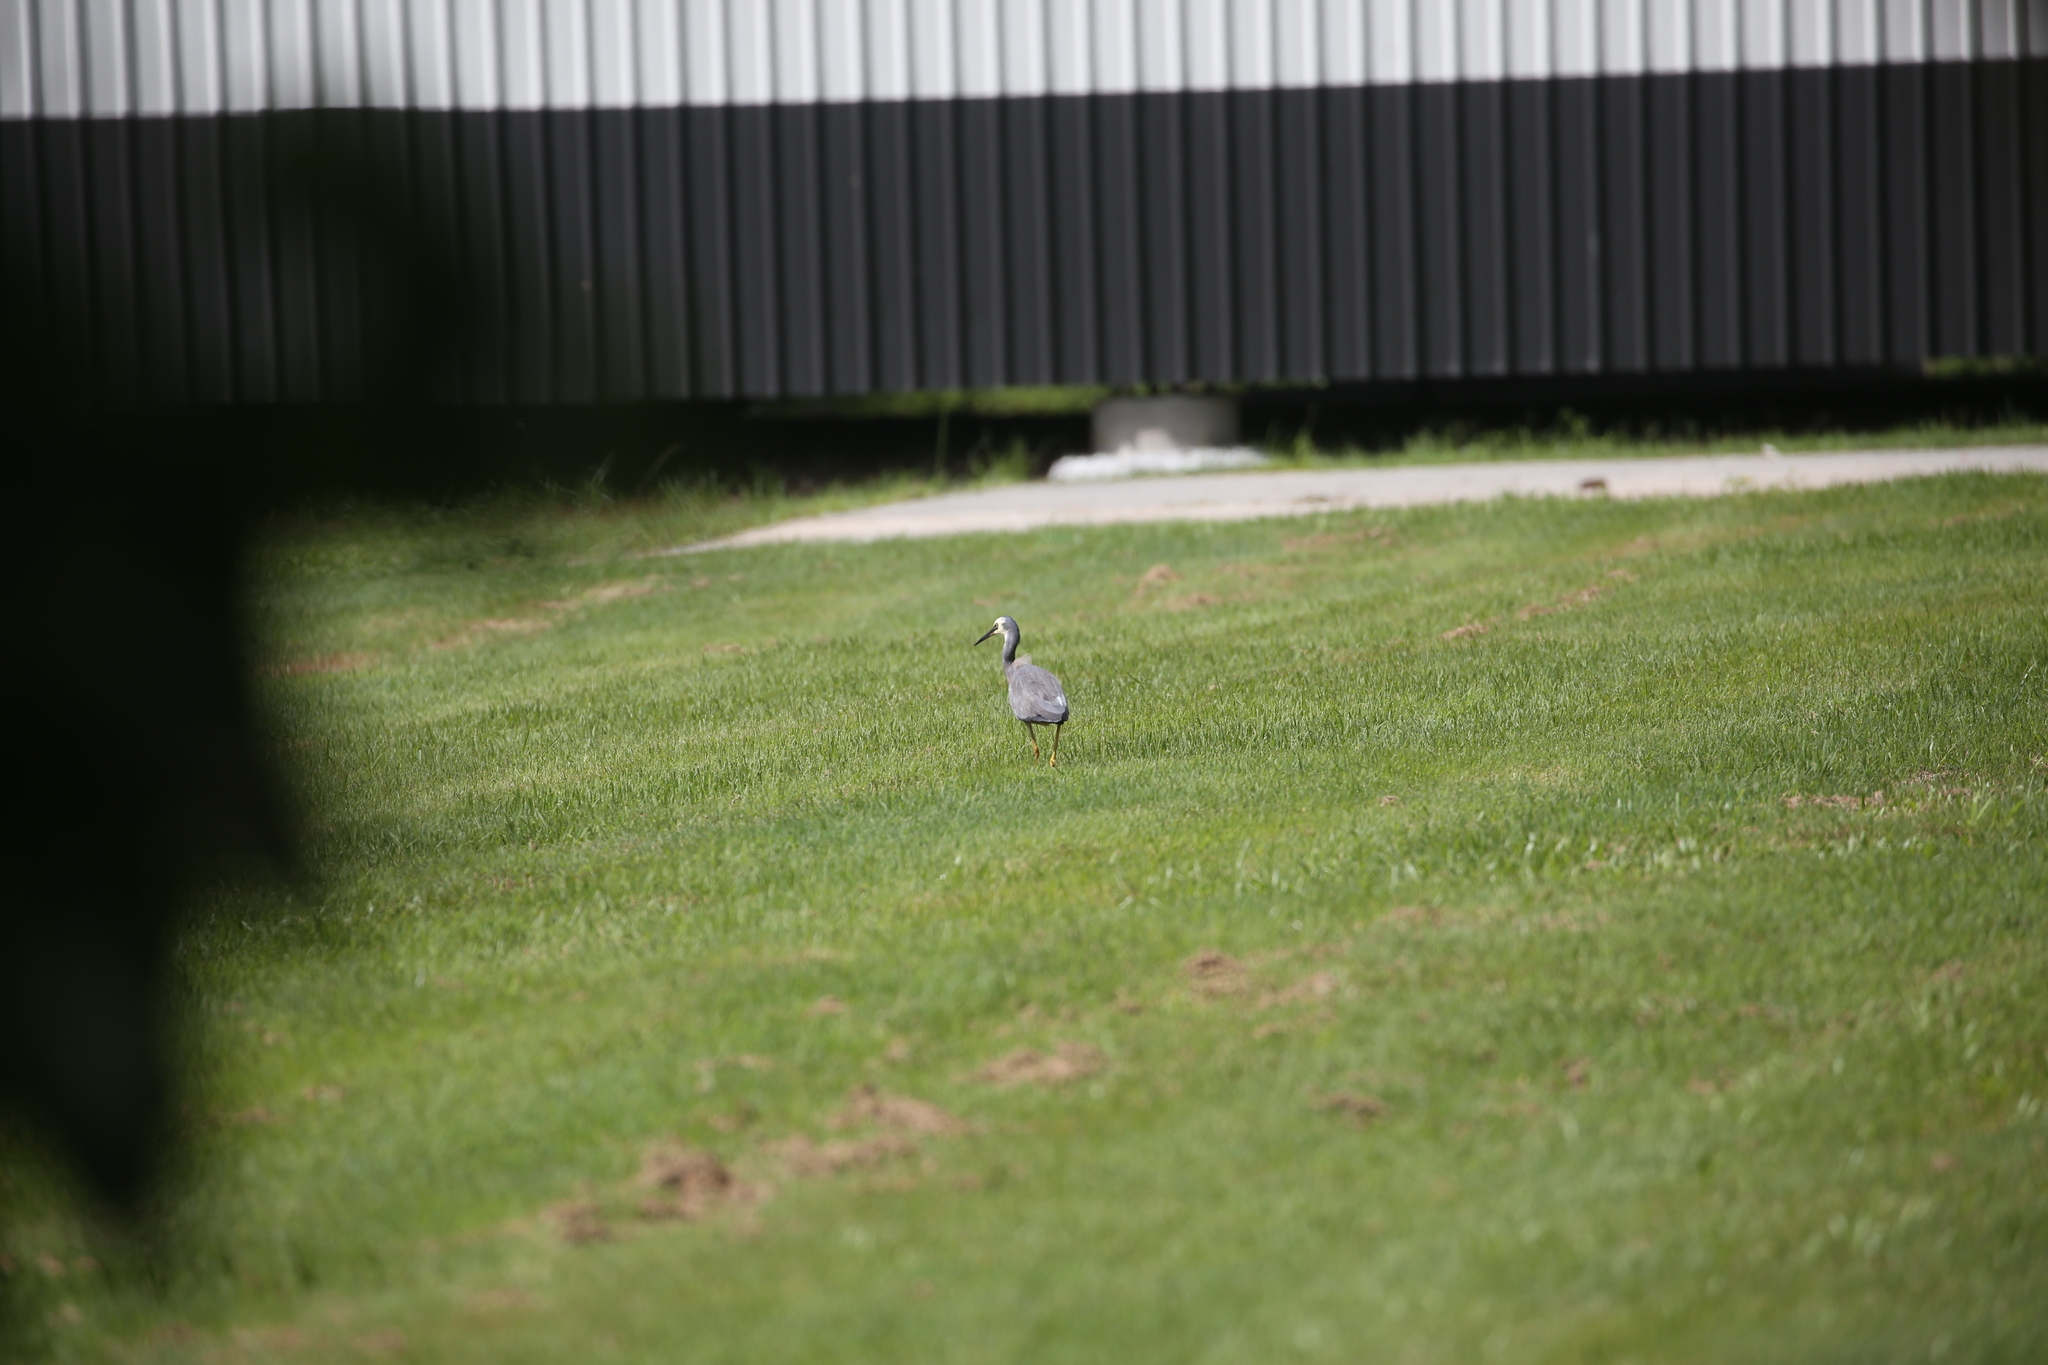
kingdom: Animalia
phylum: Chordata
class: Aves
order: Pelecaniformes
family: Ardeidae
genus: Egretta
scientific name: Egretta novaehollandiae
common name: White-faced heron
